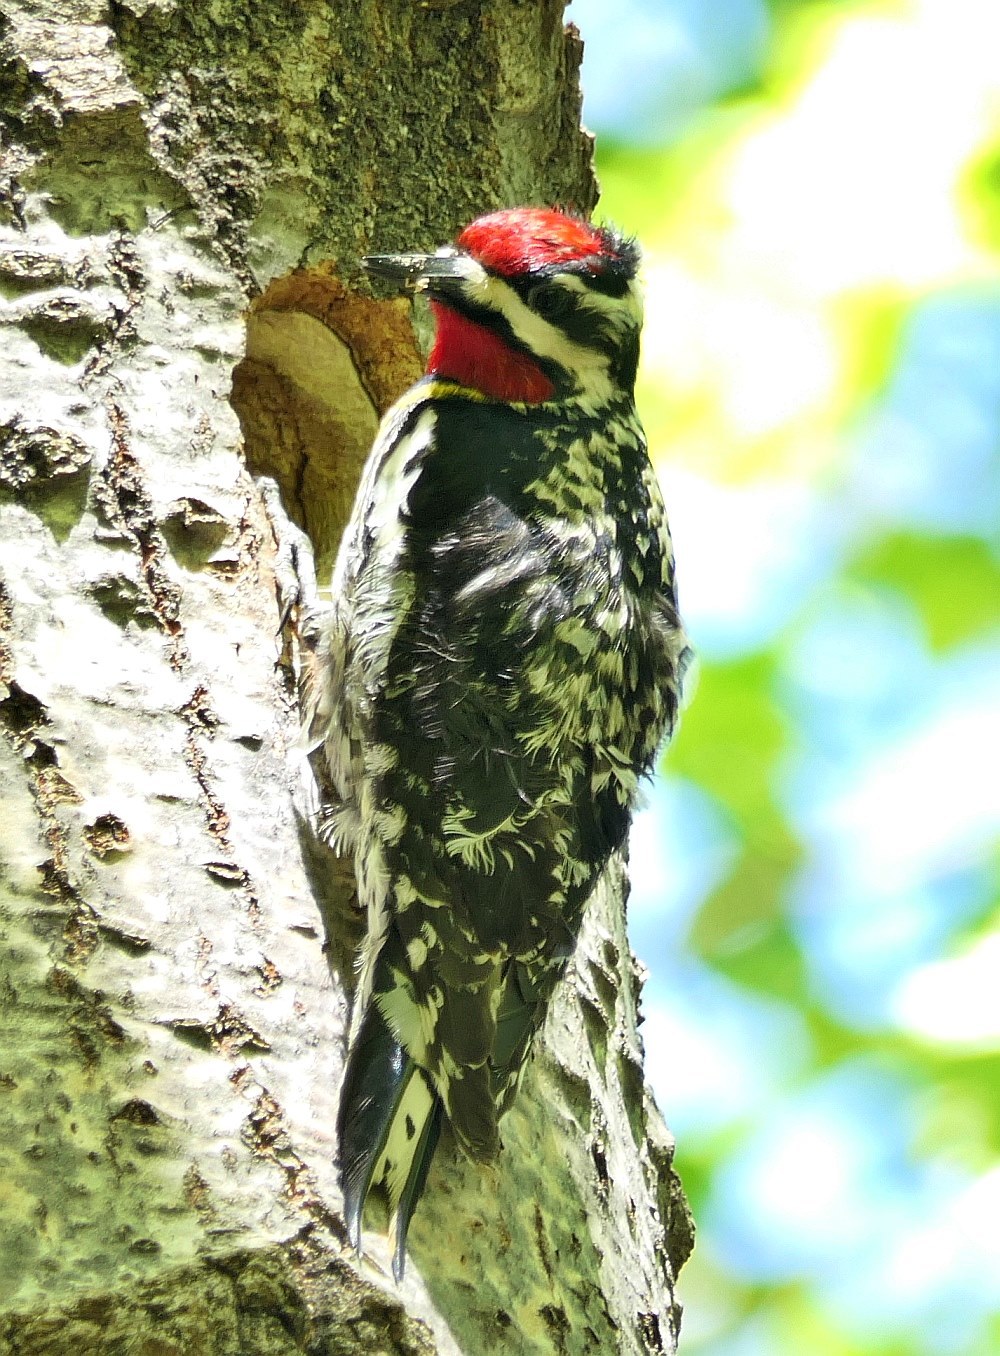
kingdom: Animalia
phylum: Chordata
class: Aves
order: Piciformes
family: Picidae
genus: Sphyrapicus
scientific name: Sphyrapicus varius
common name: Yellow-bellied sapsucker
